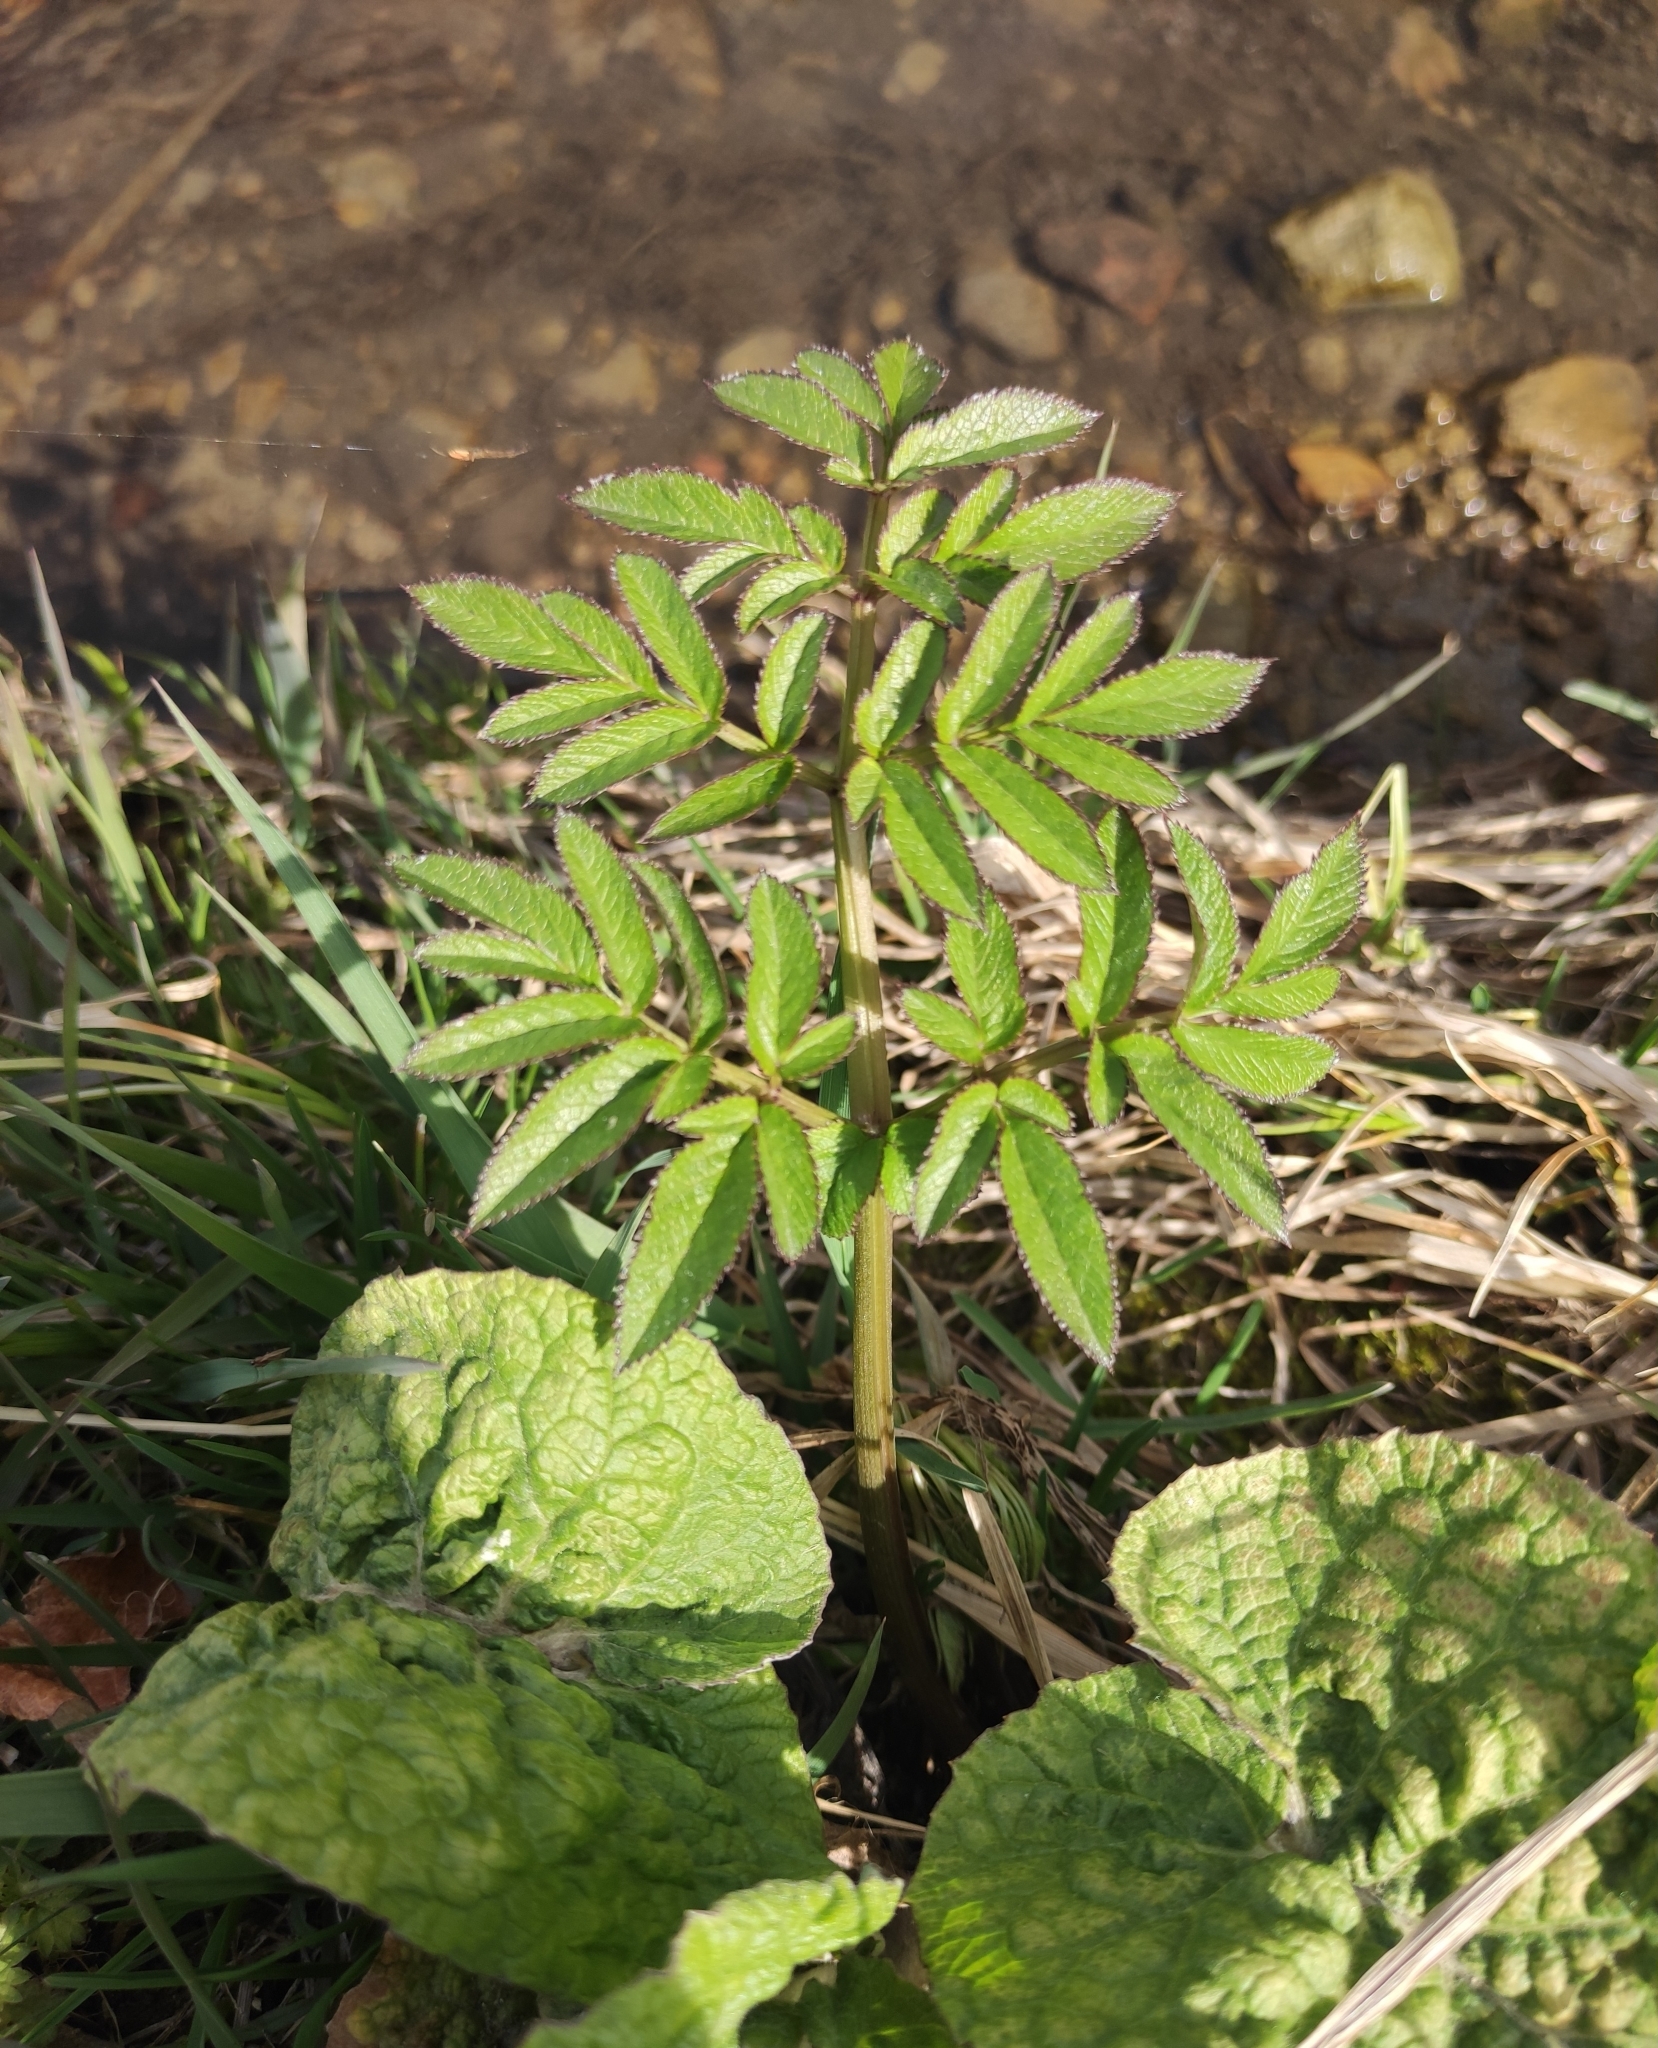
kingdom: Plantae
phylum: Tracheophyta
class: Magnoliopsida
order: Apiales
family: Apiaceae
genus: Angelica
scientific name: Angelica sylvestris
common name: Wild angelica
